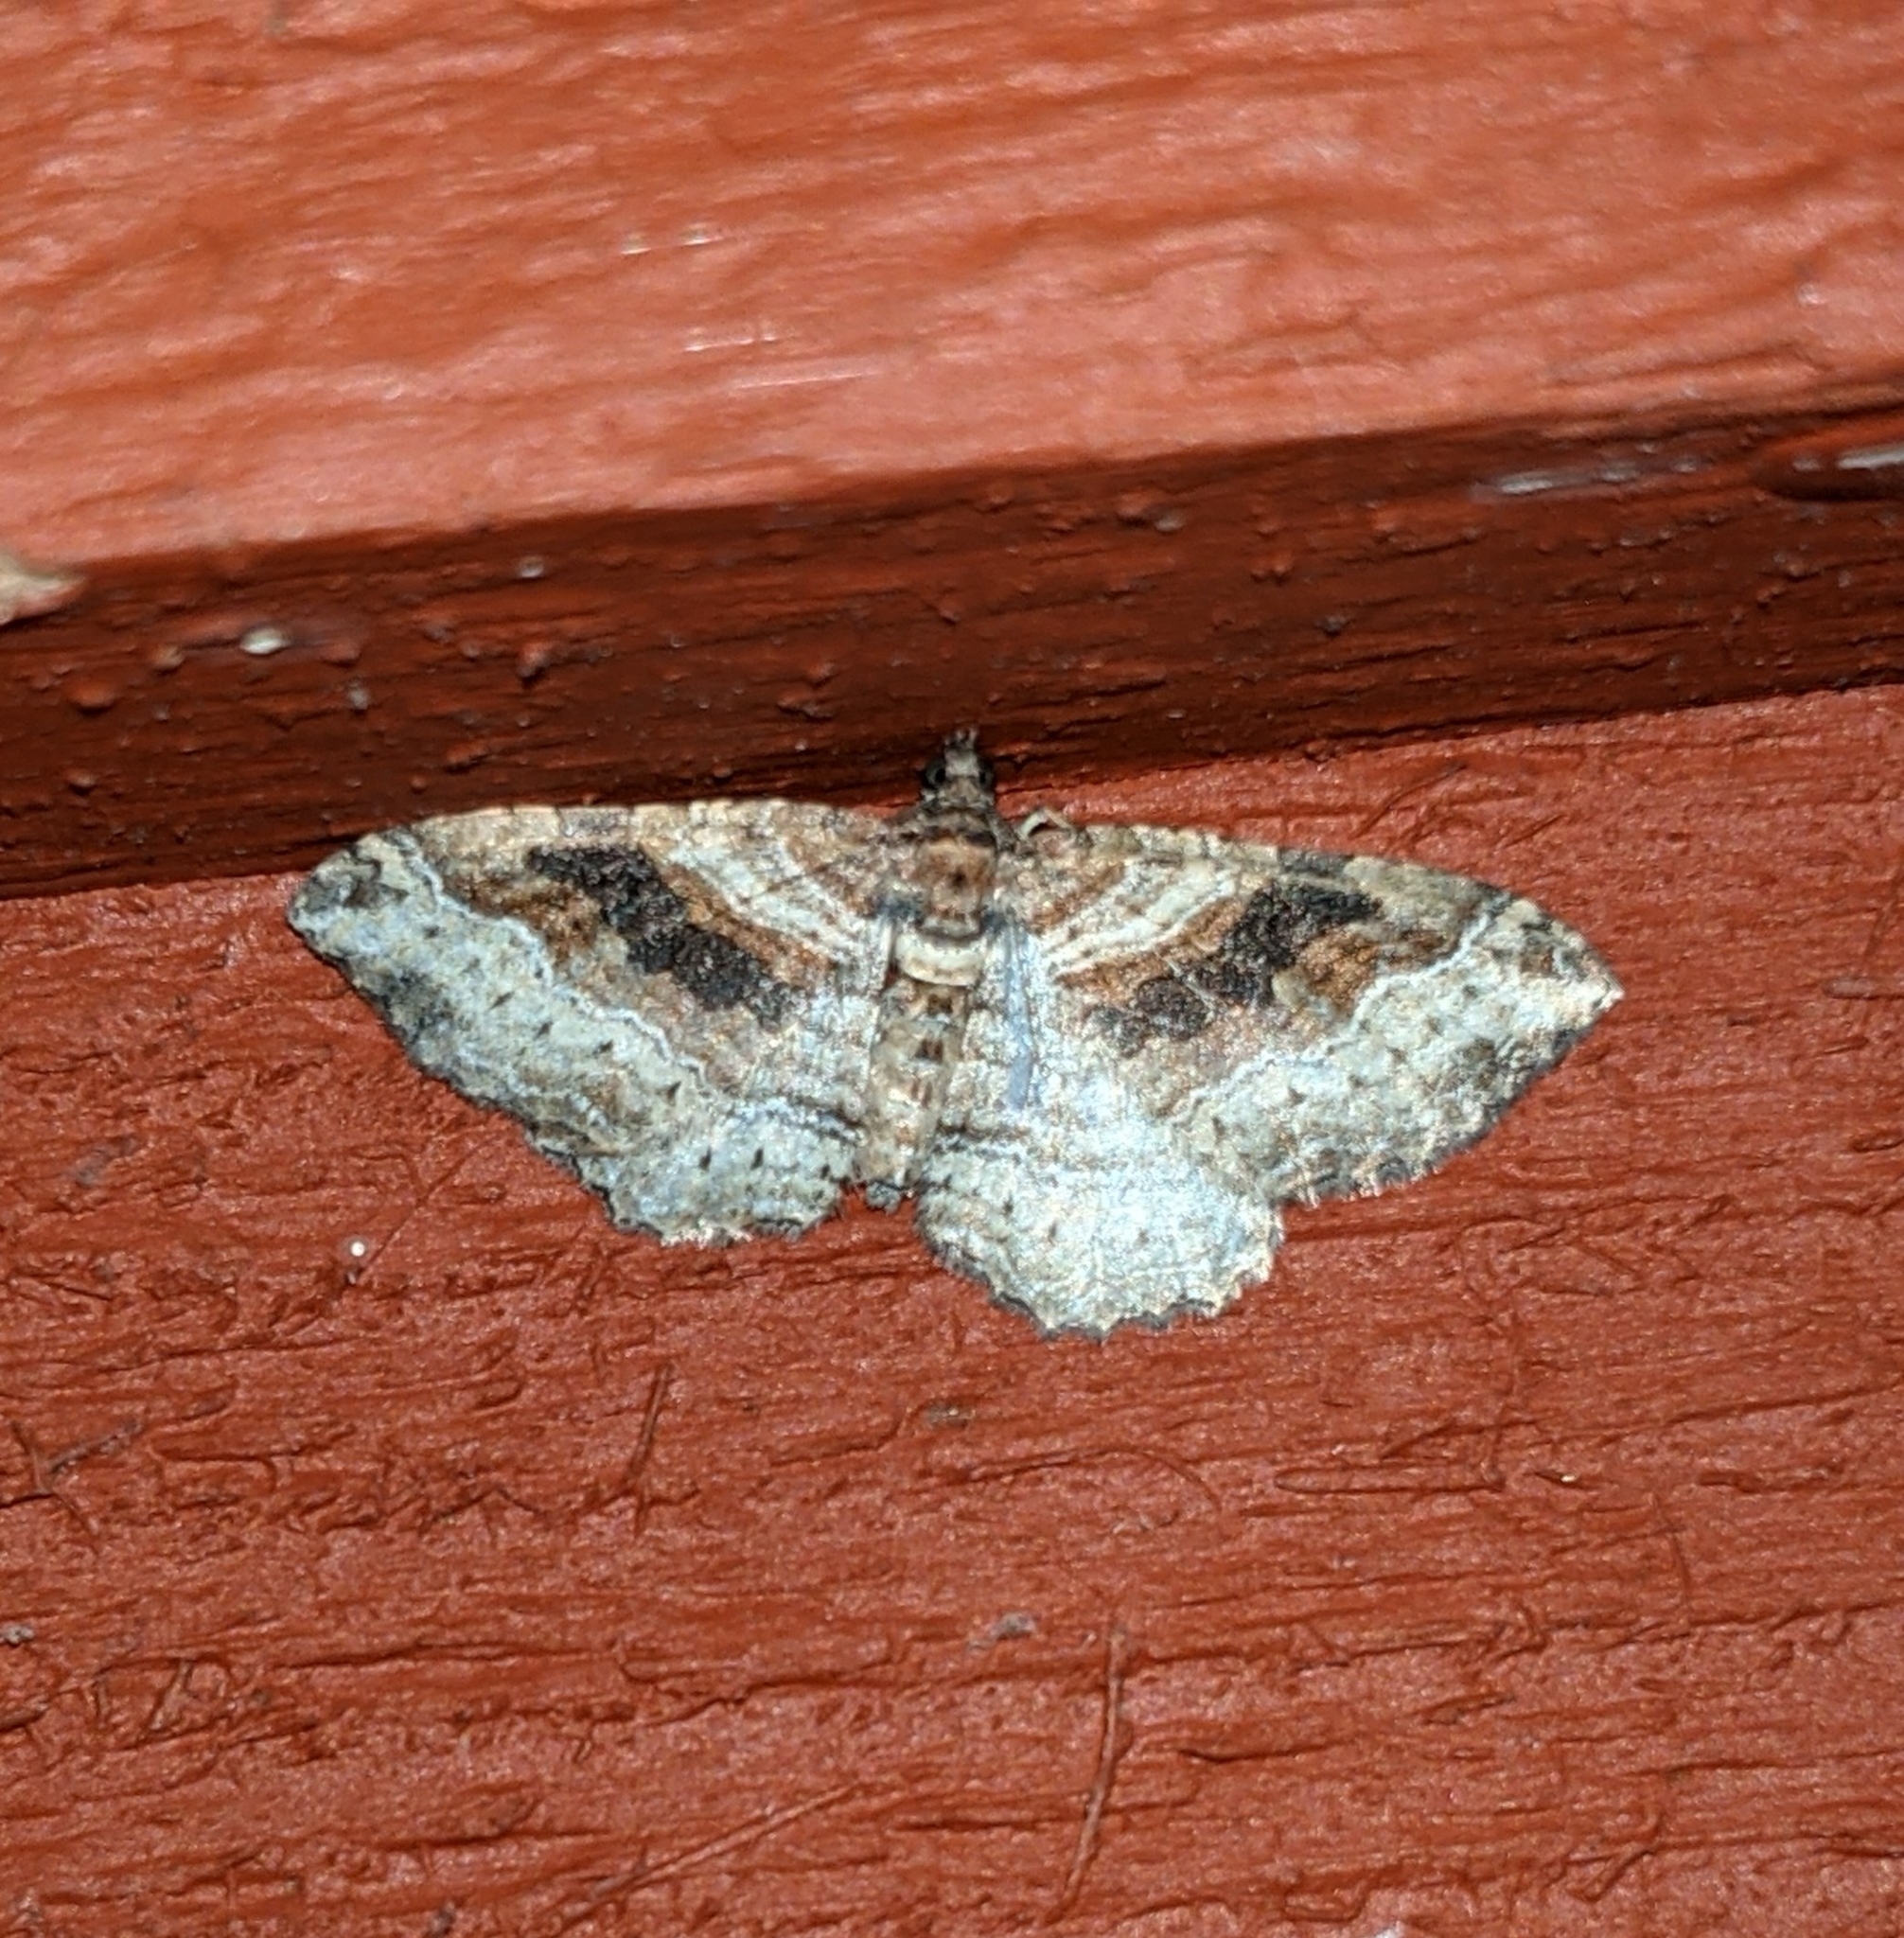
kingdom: Animalia
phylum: Arthropoda
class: Insecta
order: Lepidoptera
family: Geometridae
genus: Costaconvexa
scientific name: Costaconvexa centrostrigaria
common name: Bent-line carpet
